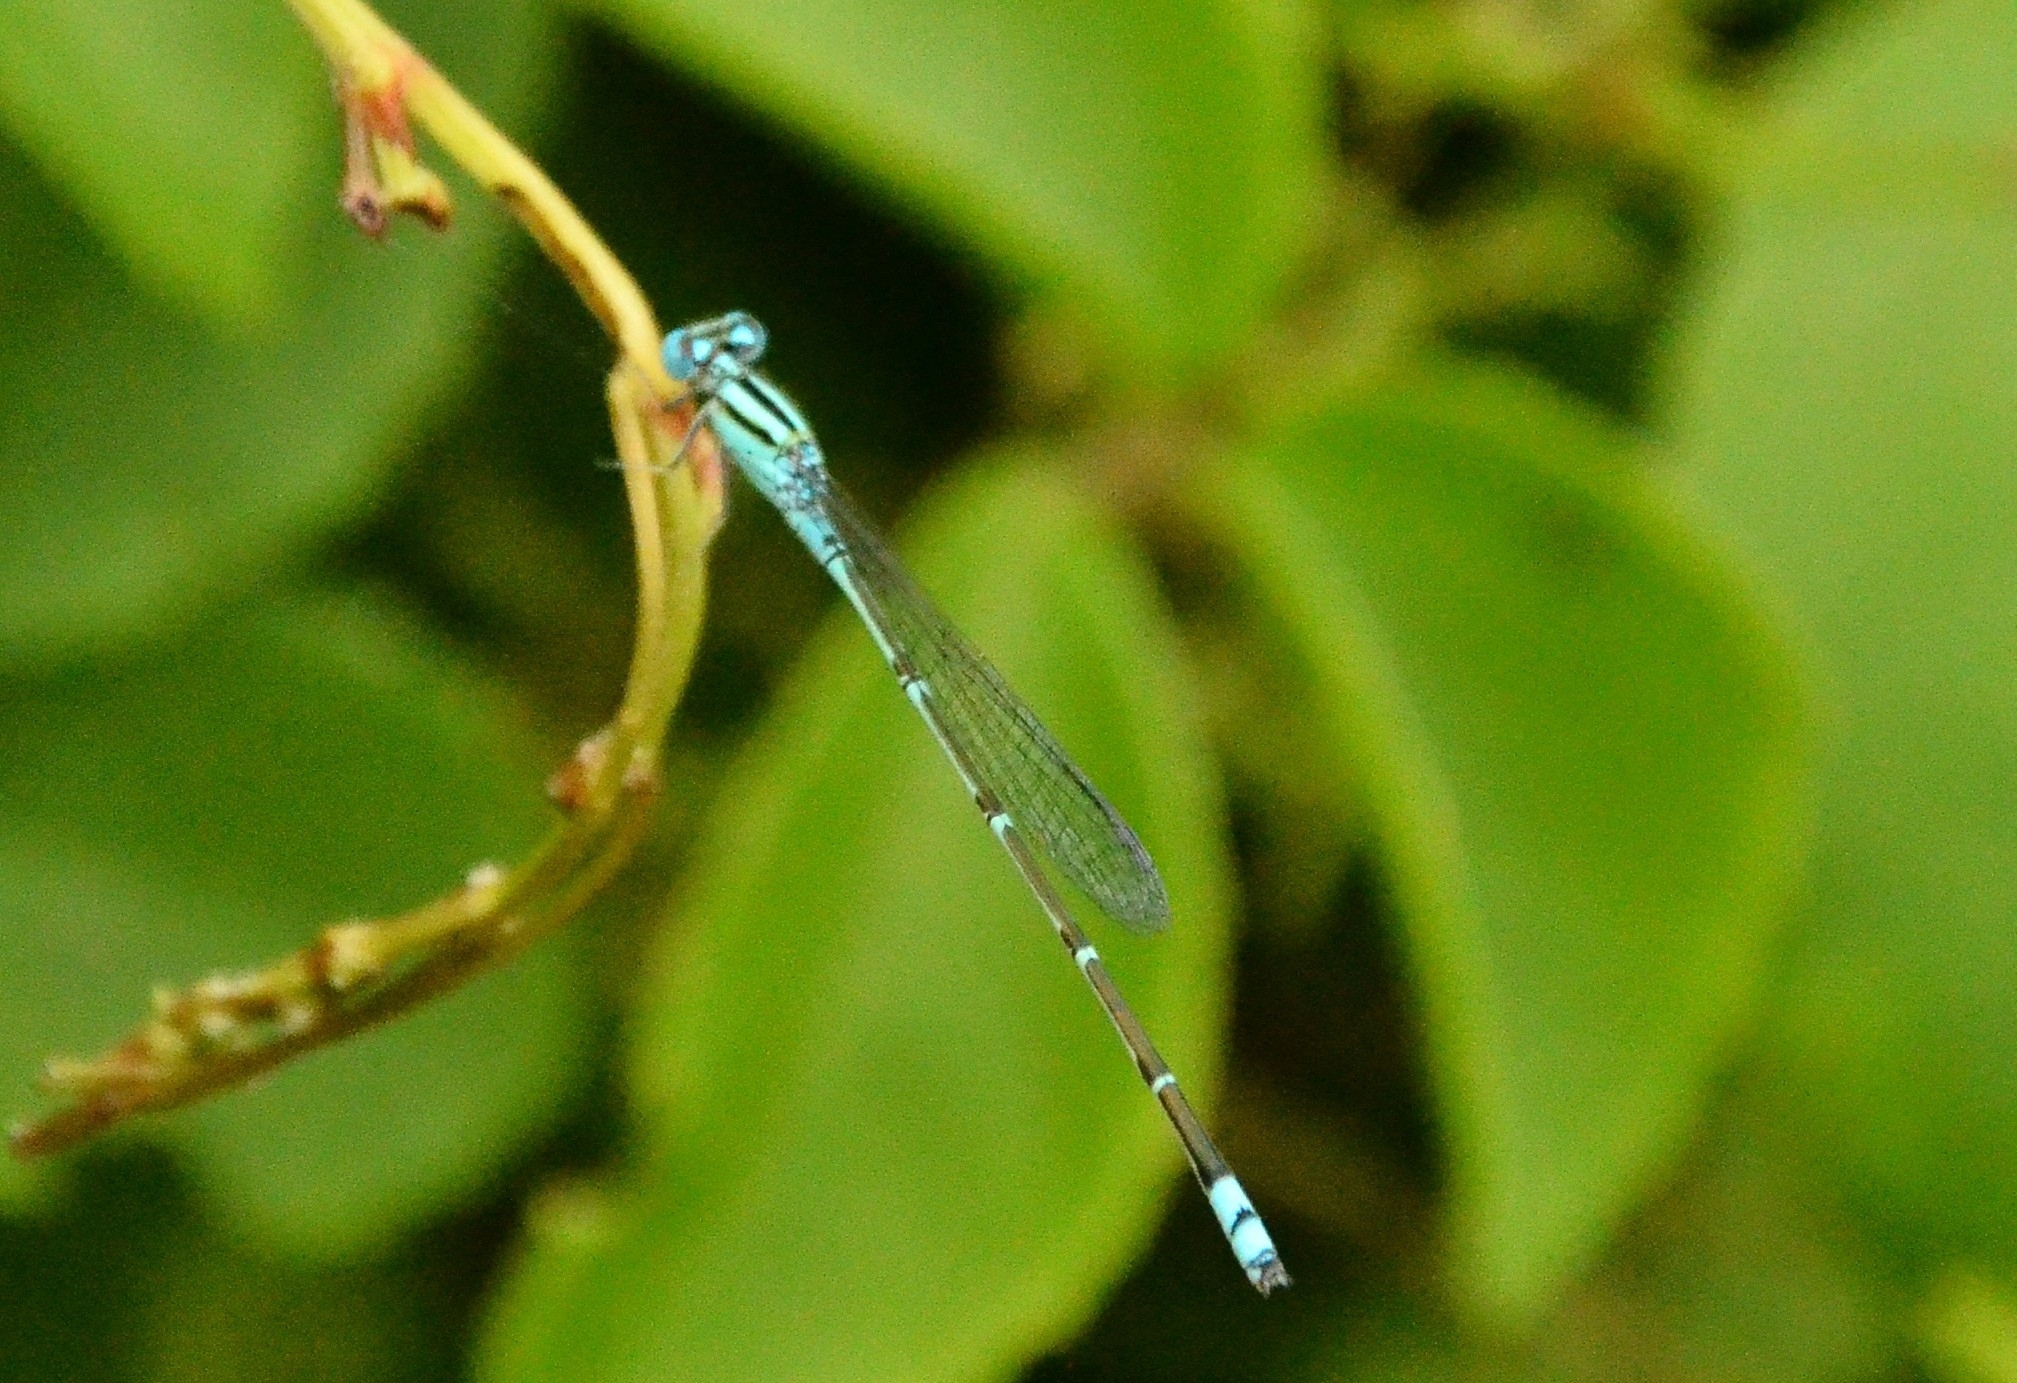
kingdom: Animalia
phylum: Arthropoda
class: Insecta
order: Odonata
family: Coenagrionidae
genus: Pseudagrion
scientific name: Pseudagrion microcephalum
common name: Blue riverdamsel
